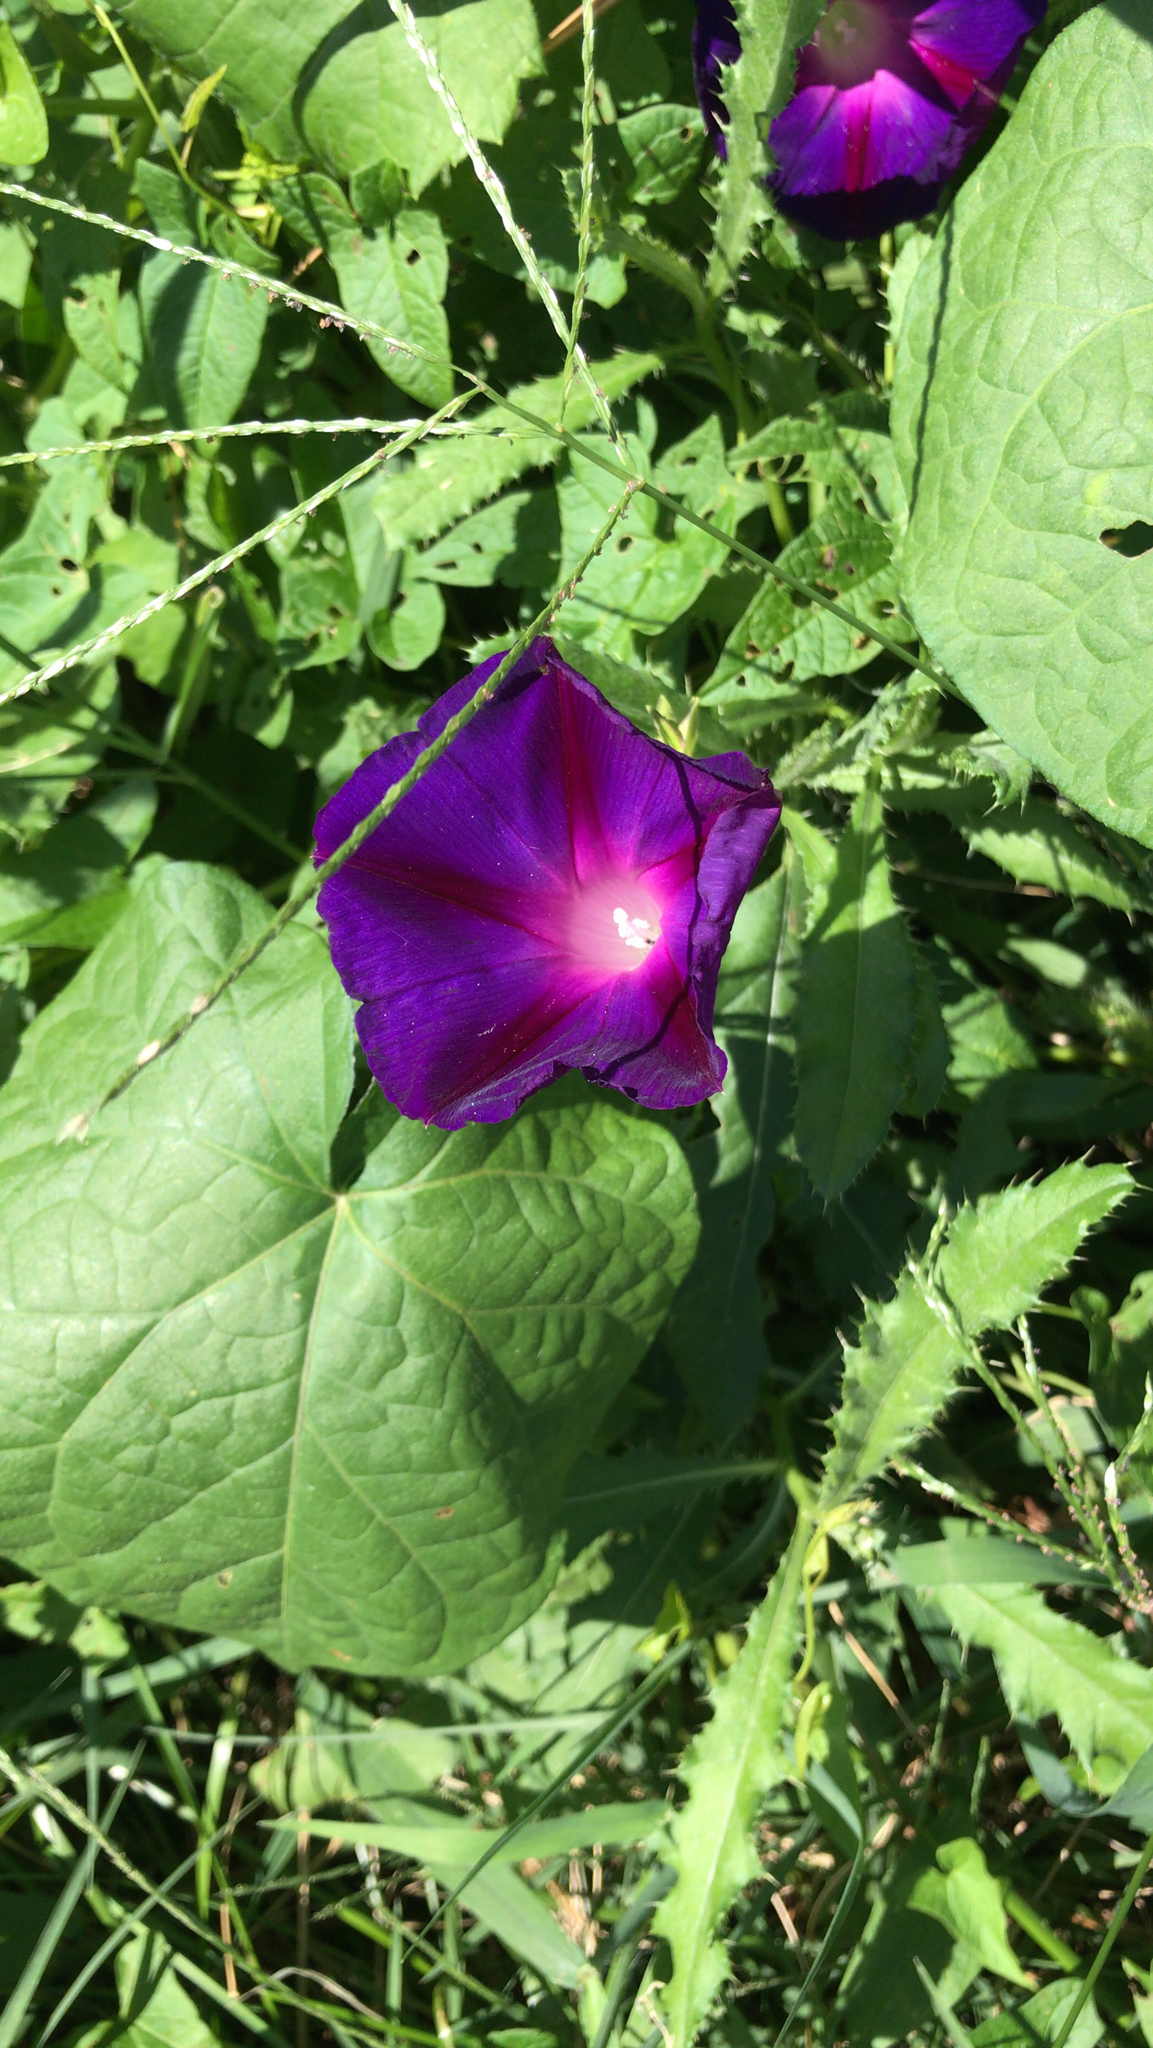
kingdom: Plantae
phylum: Tracheophyta
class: Magnoliopsida
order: Solanales
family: Convolvulaceae
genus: Ipomoea
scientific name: Ipomoea purpurea
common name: Common morning-glory
